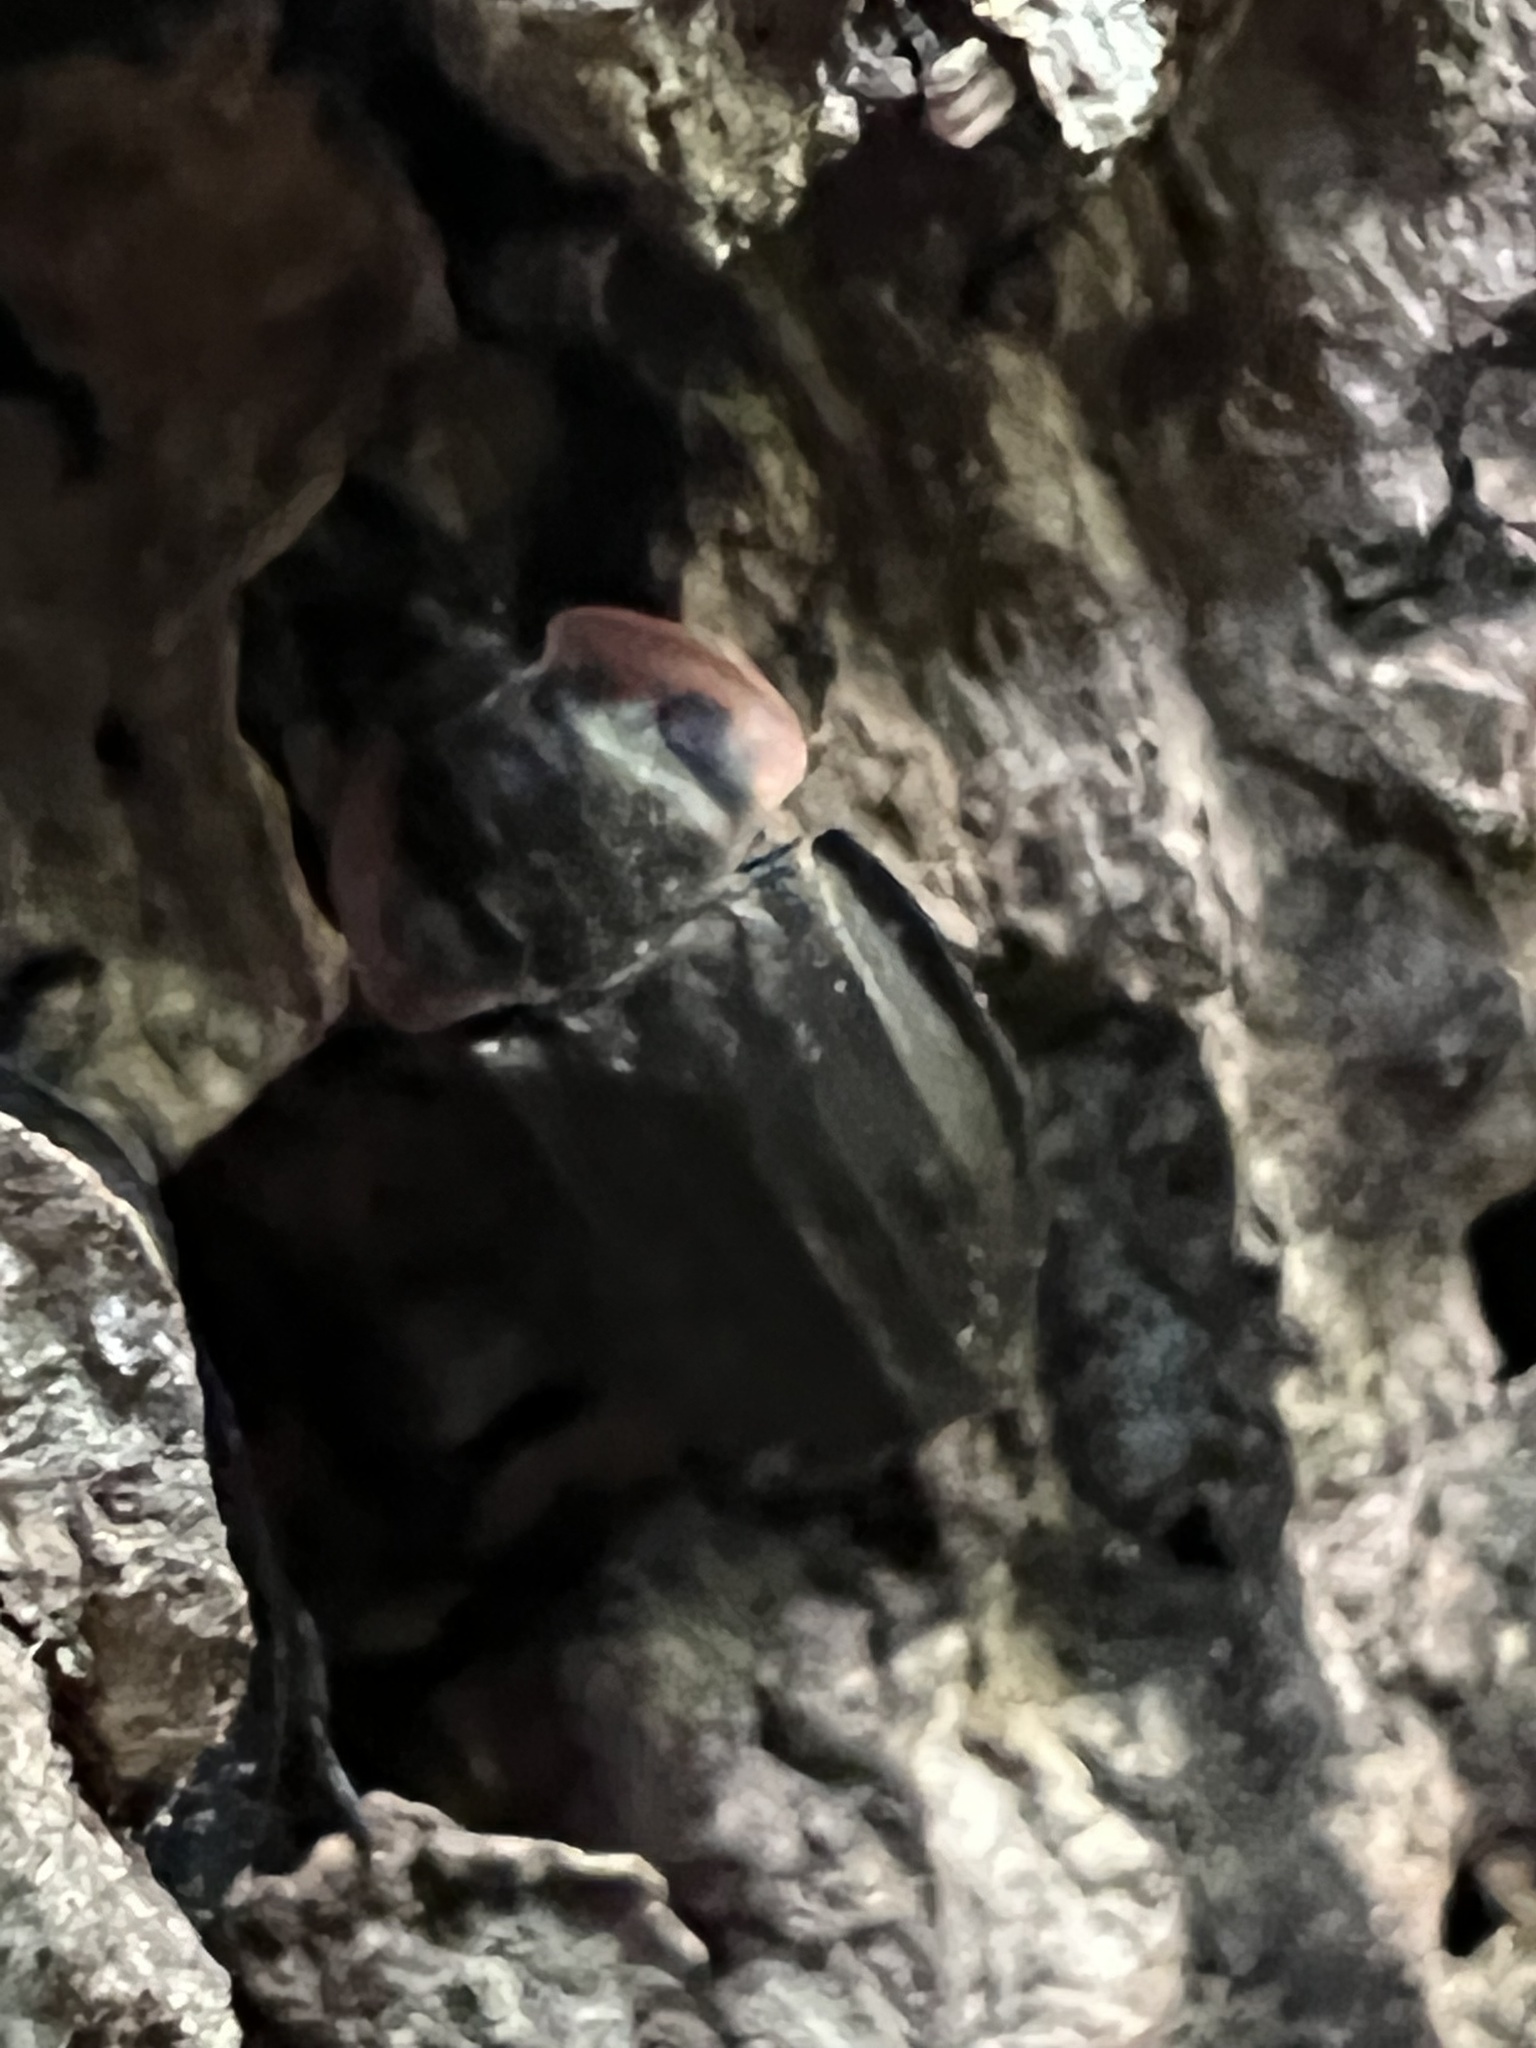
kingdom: Animalia
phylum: Arthropoda
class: Insecta
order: Coleoptera
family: Staphylinidae
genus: Oiceoptoma
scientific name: Oiceoptoma noveboracense
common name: Margined carrion beetle
